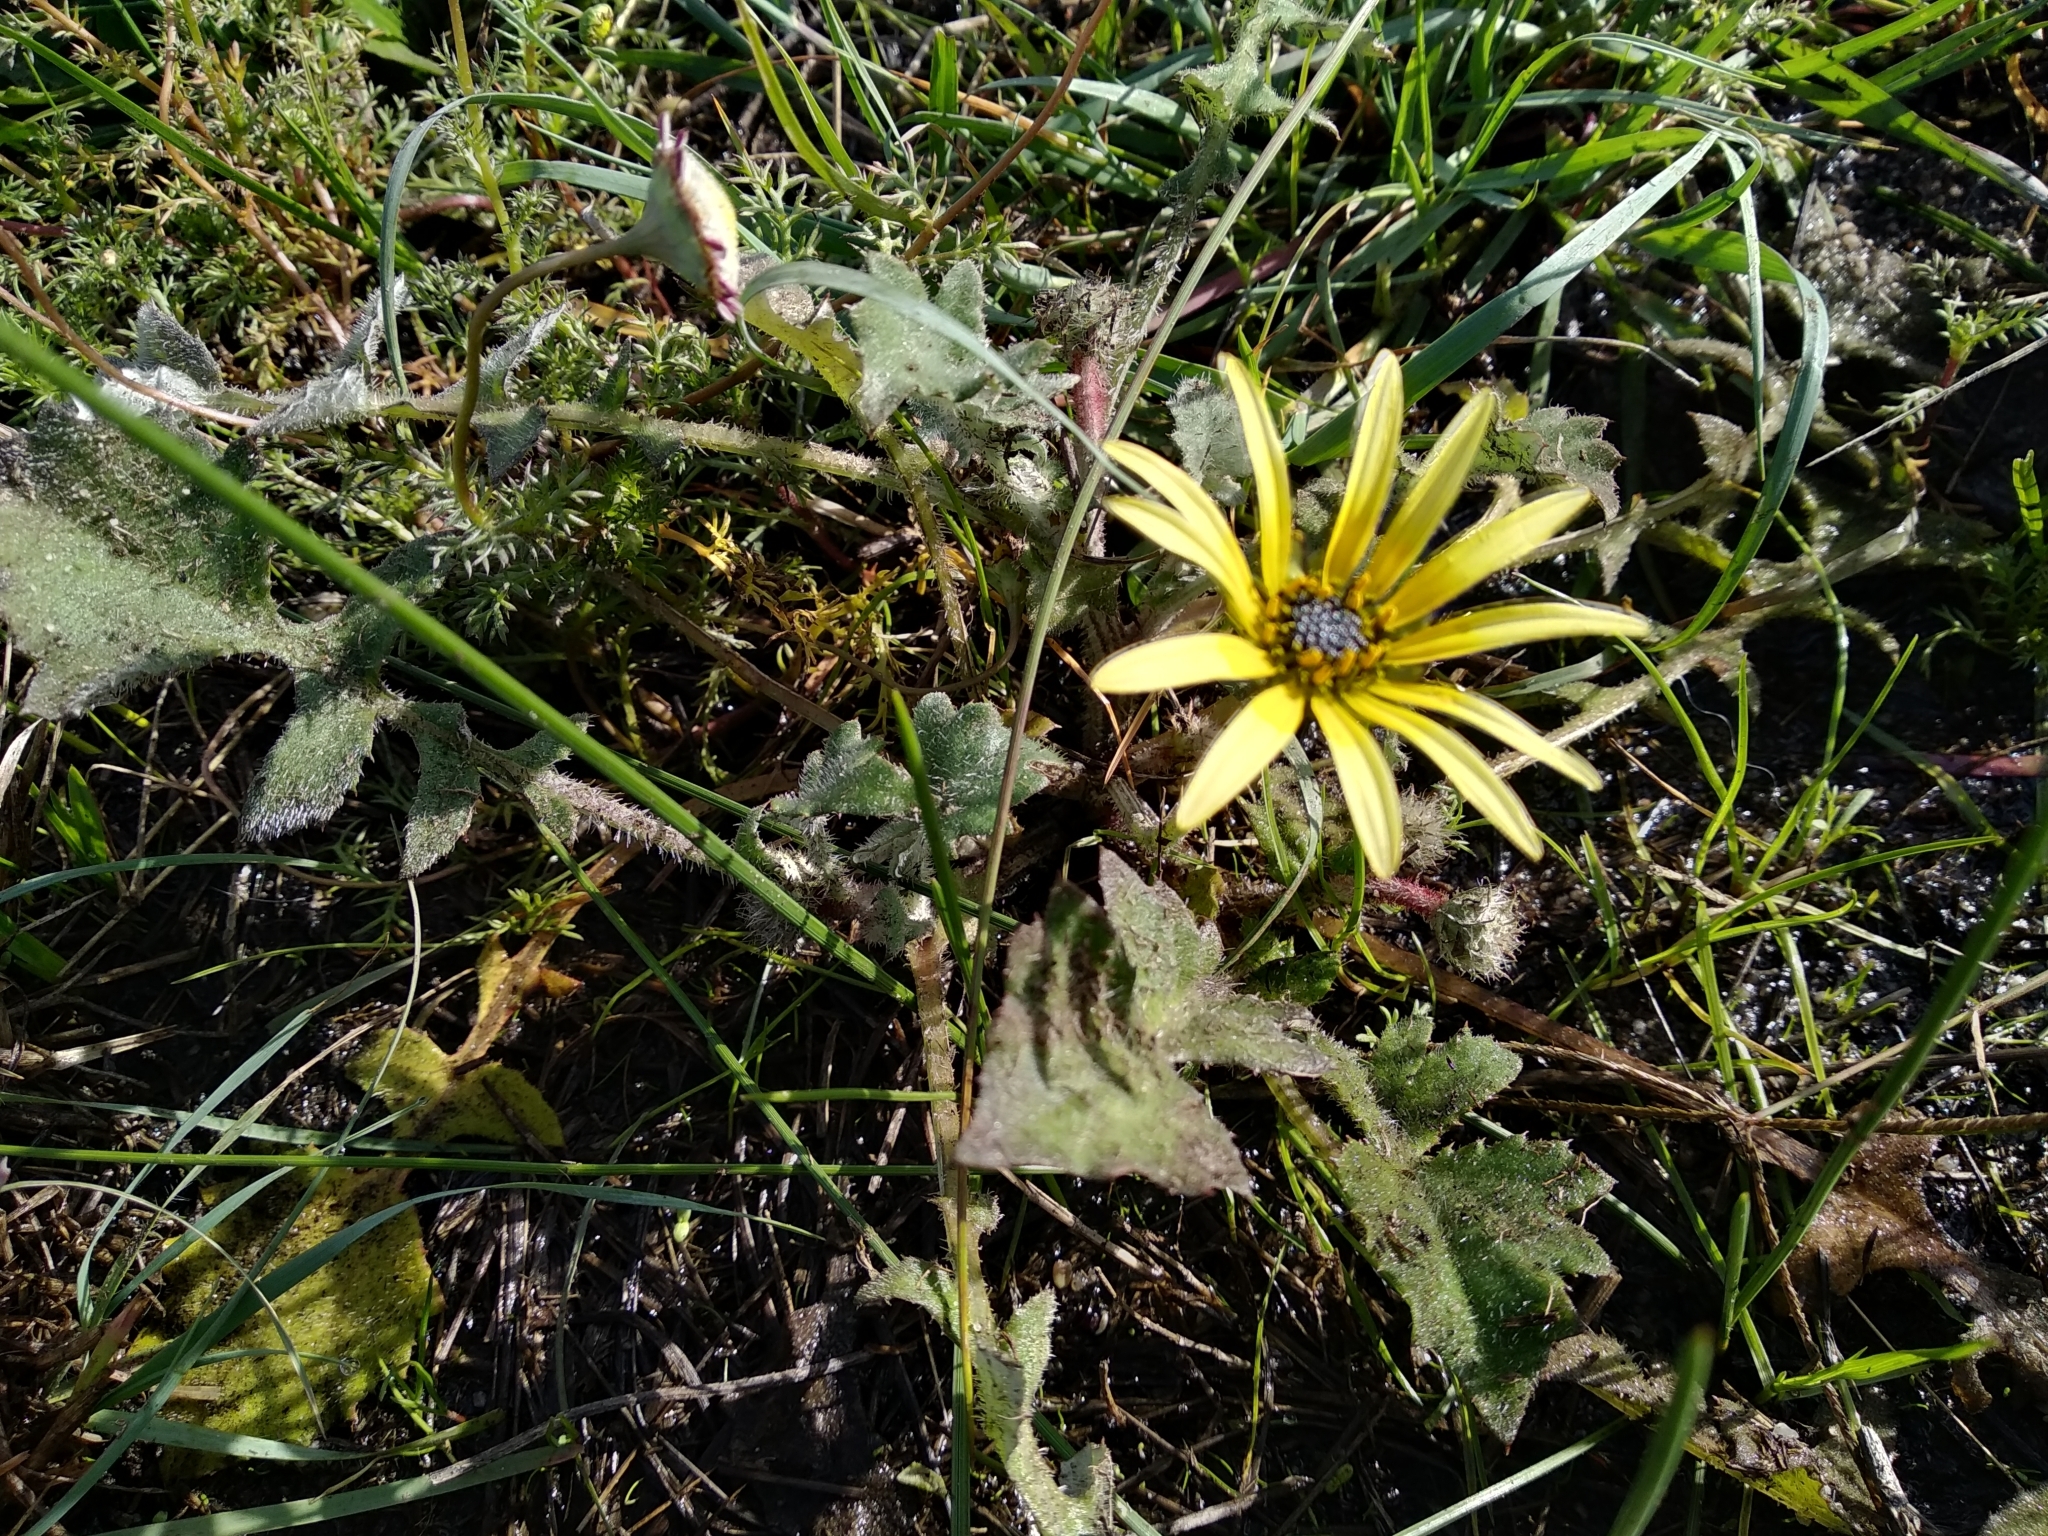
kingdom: Plantae
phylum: Tracheophyta
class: Magnoliopsida
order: Asterales
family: Asteraceae
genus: Arctotheca
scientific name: Arctotheca calendula
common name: Capeweed
